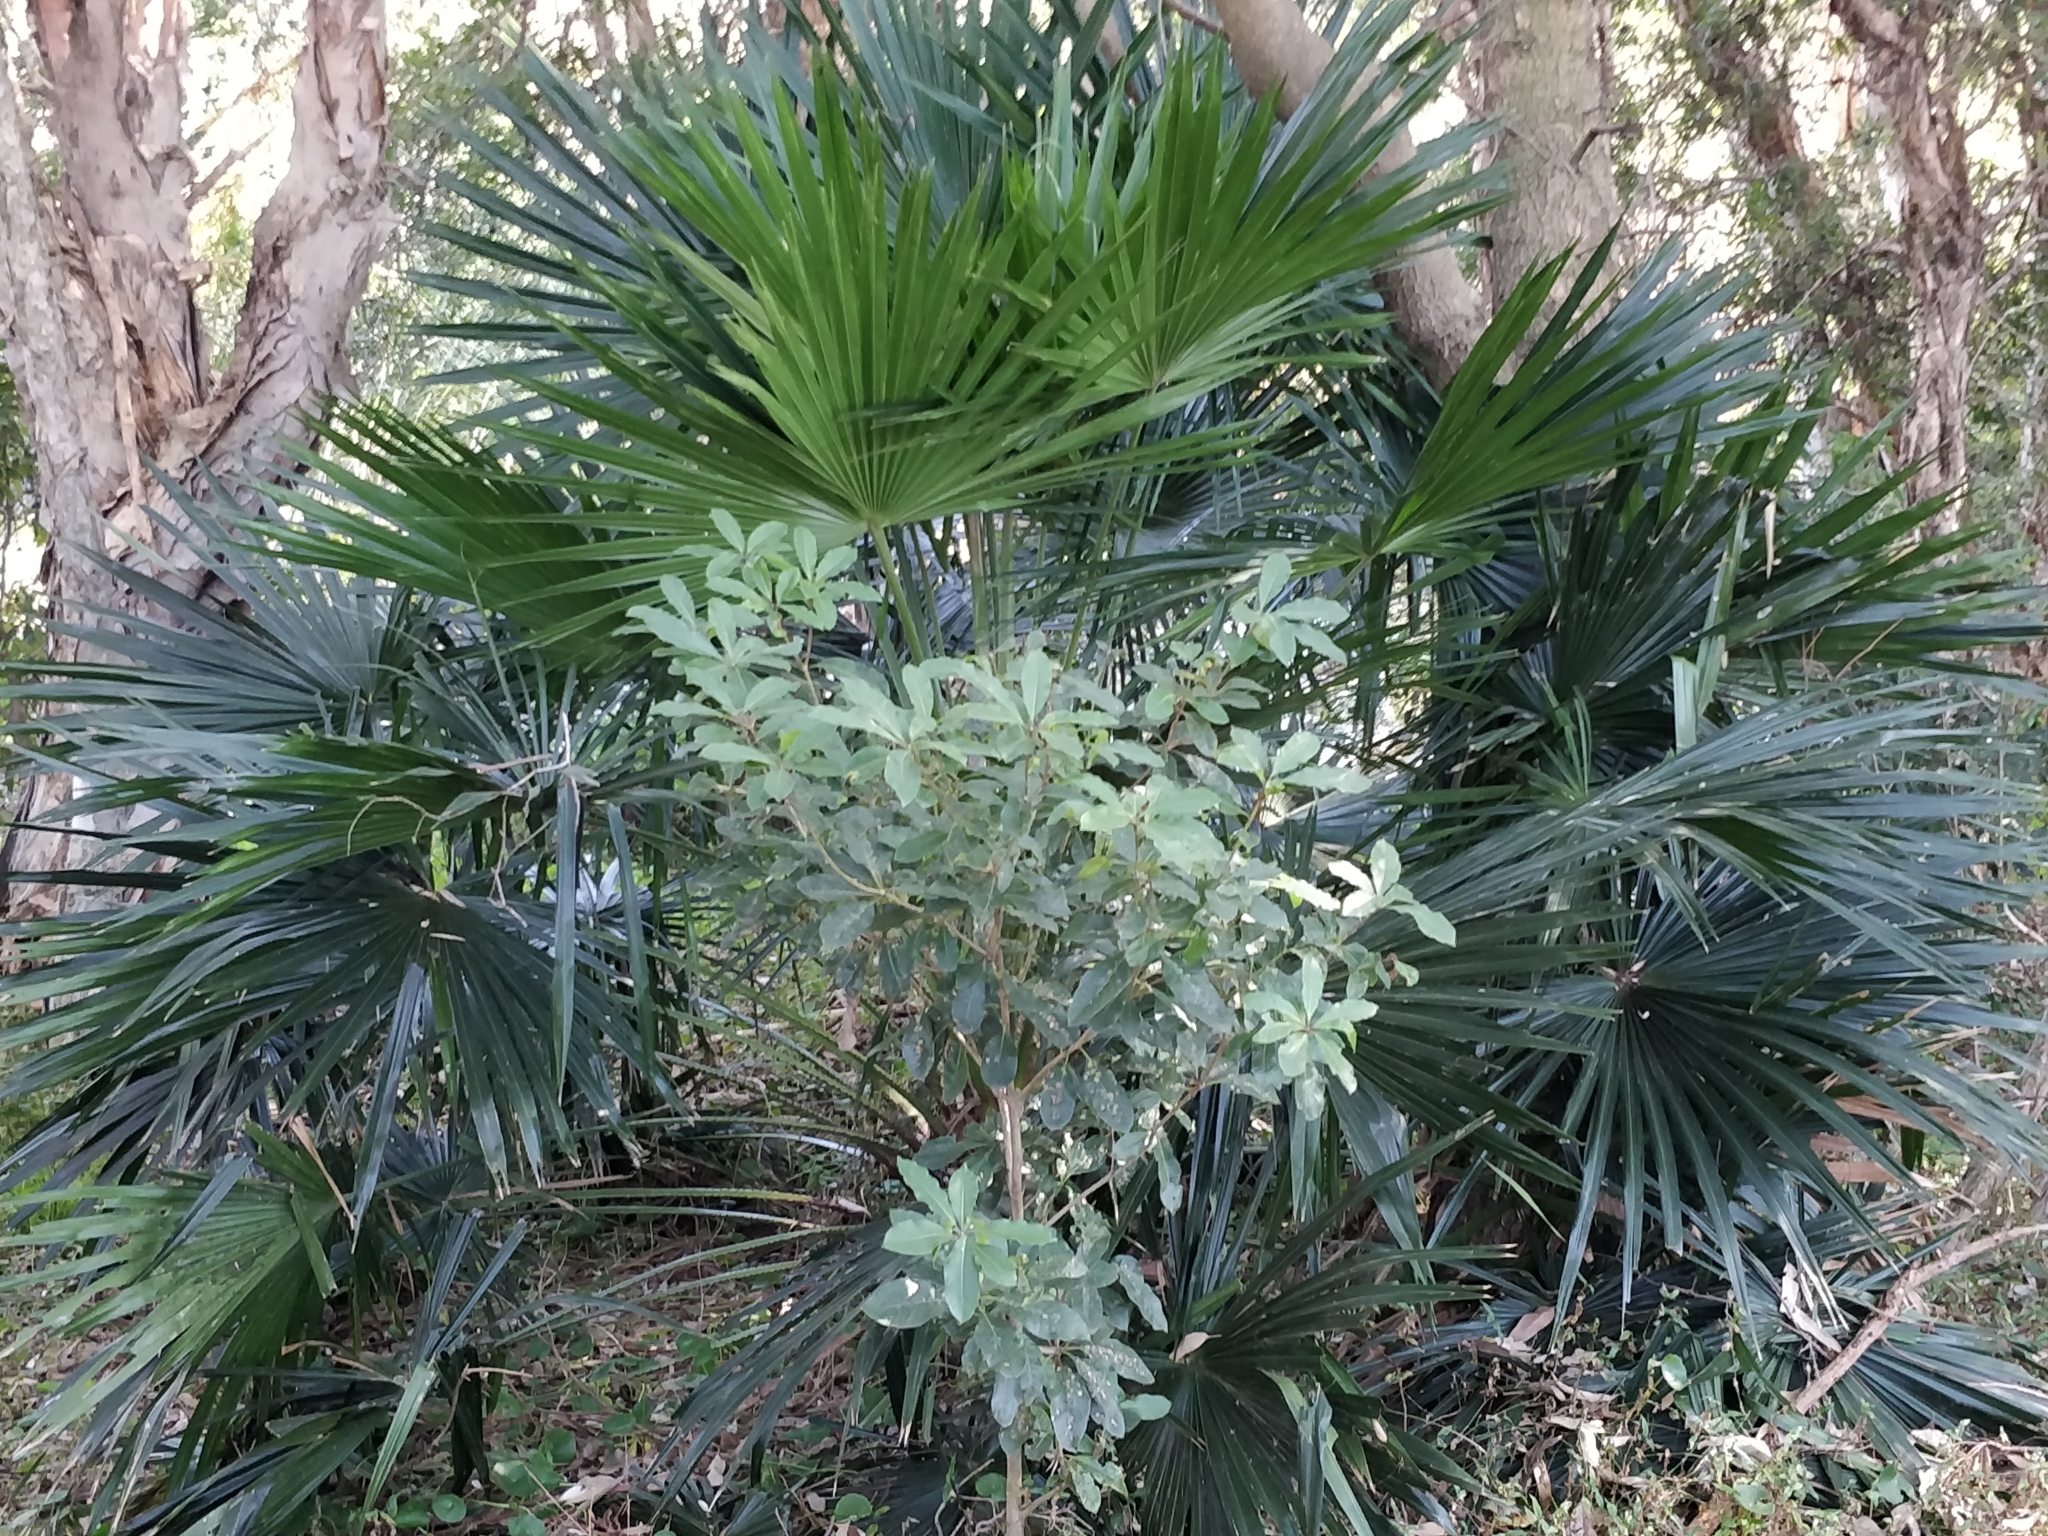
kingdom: Plantae
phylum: Tracheophyta
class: Liliopsida
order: Arecales
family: Arecaceae
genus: Livistona
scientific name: Livistona australis
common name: Cabbage fan palm
